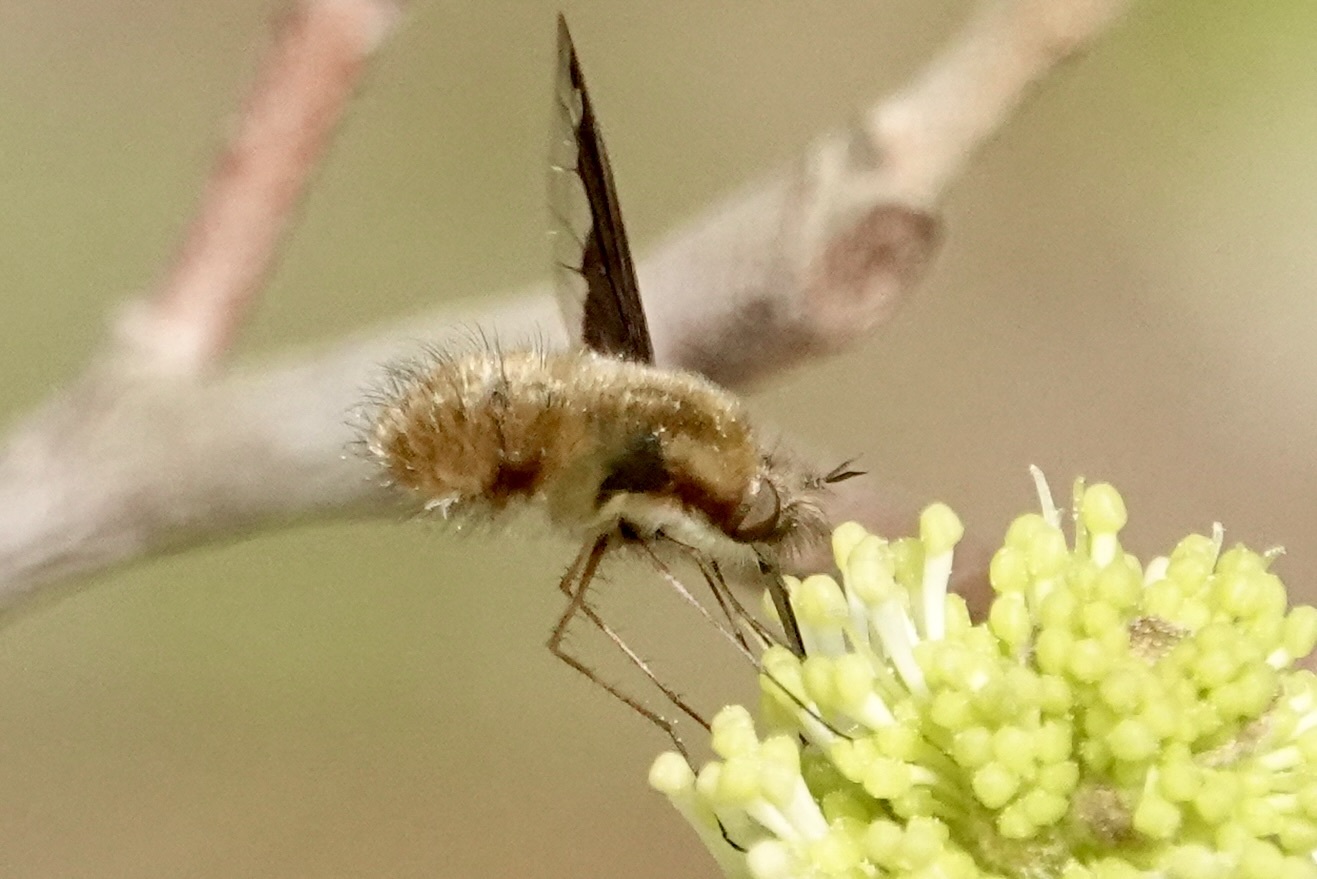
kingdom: Animalia
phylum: Arthropoda
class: Insecta
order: Diptera
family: Bombyliidae
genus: Bombylius
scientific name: Bombylius major
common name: Bee fly
